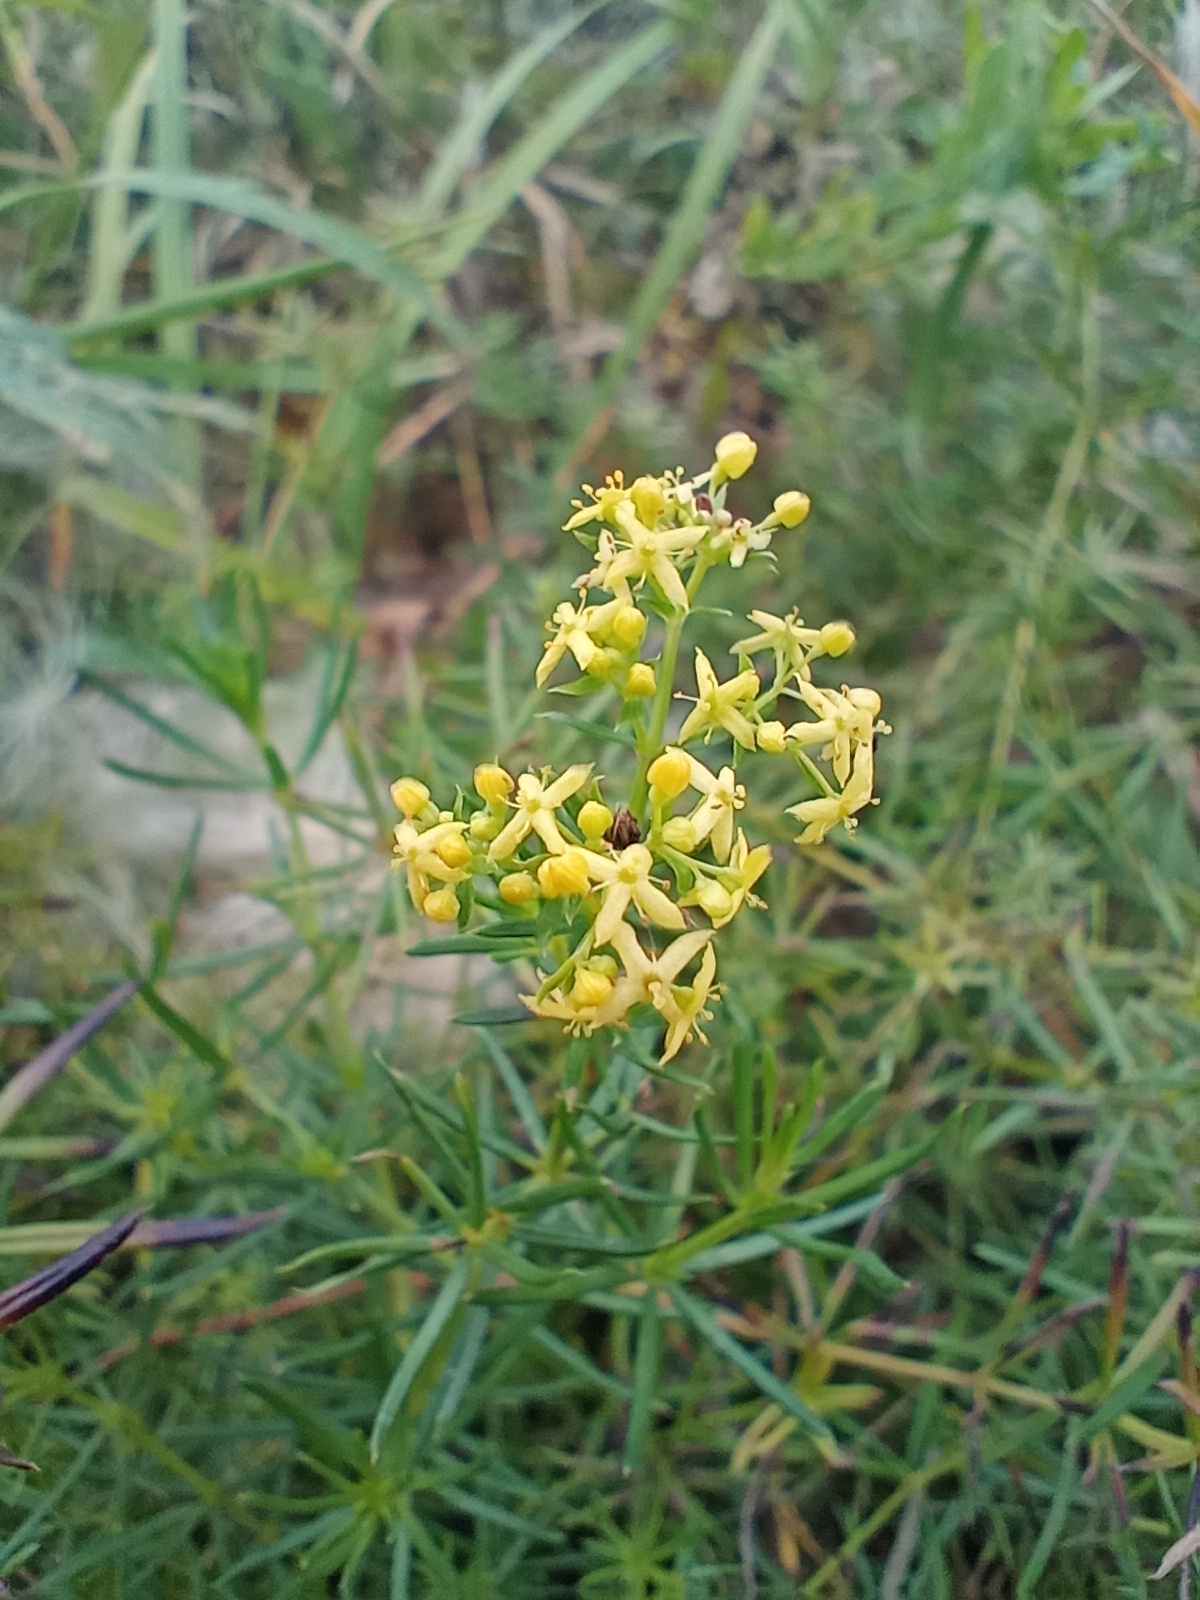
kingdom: Plantae
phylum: Tracheophyta
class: Magnoliopsida
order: Gentianales
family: Rubiaceae
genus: Galium
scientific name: Galium verum
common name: Lady's bedstraw
